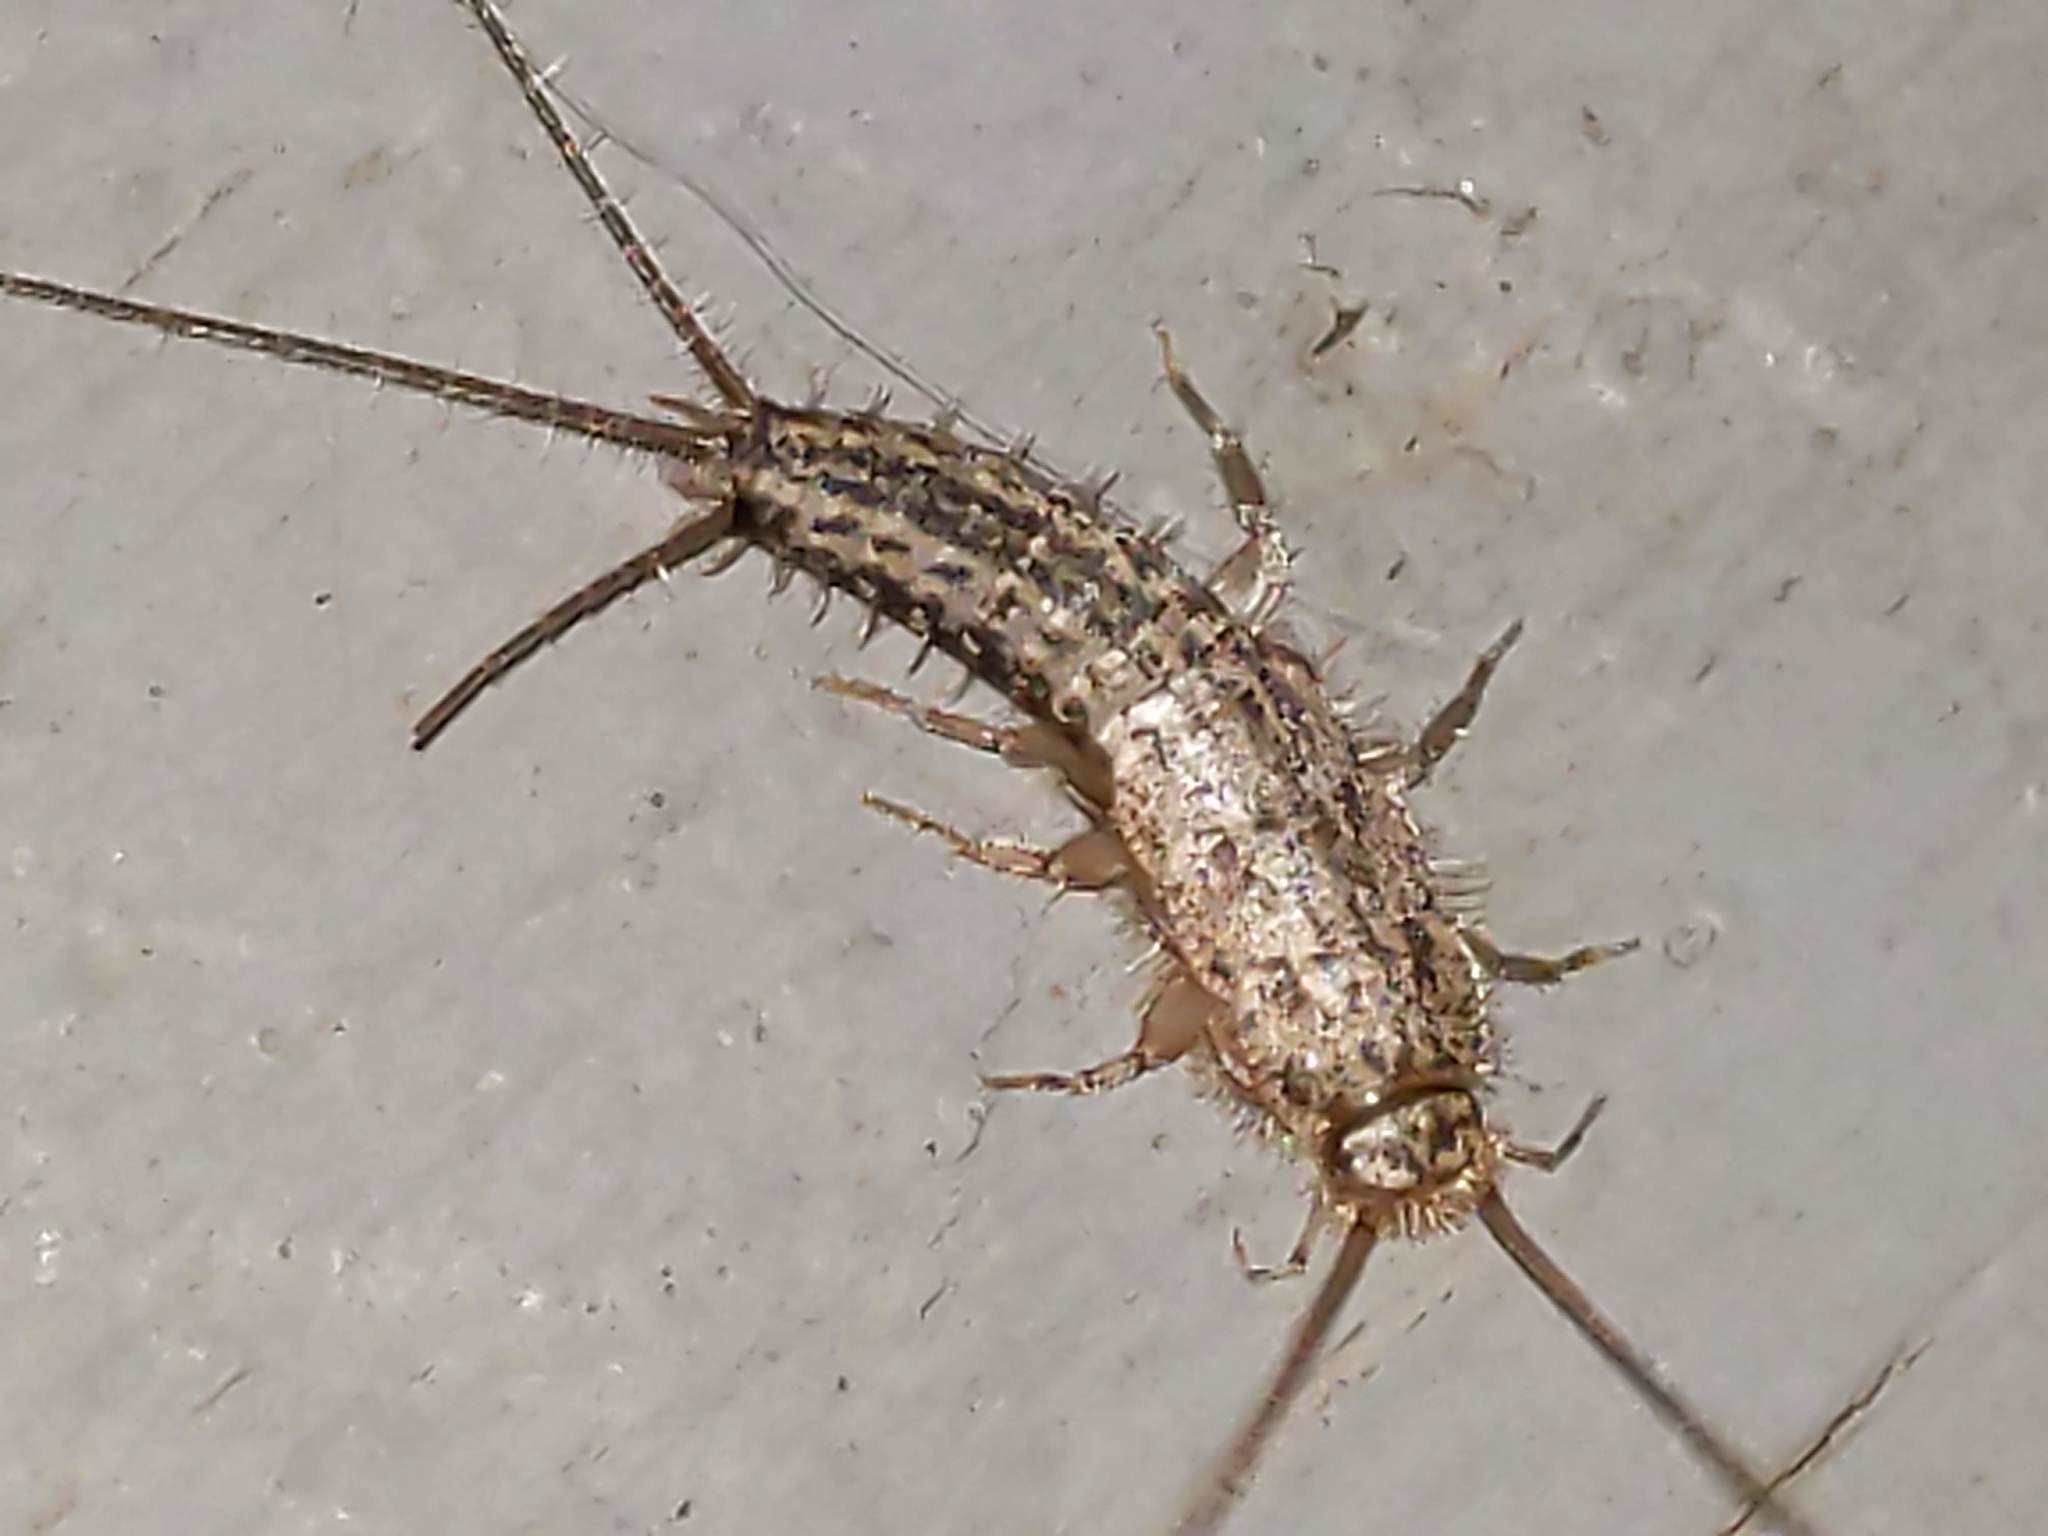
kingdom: Animalia
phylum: Arthropoda
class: Insecta
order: Zygentoma
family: Lepismatidae
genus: Ctenolepisma
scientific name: Ctenolepisma lineata
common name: Four-lined silverfish
